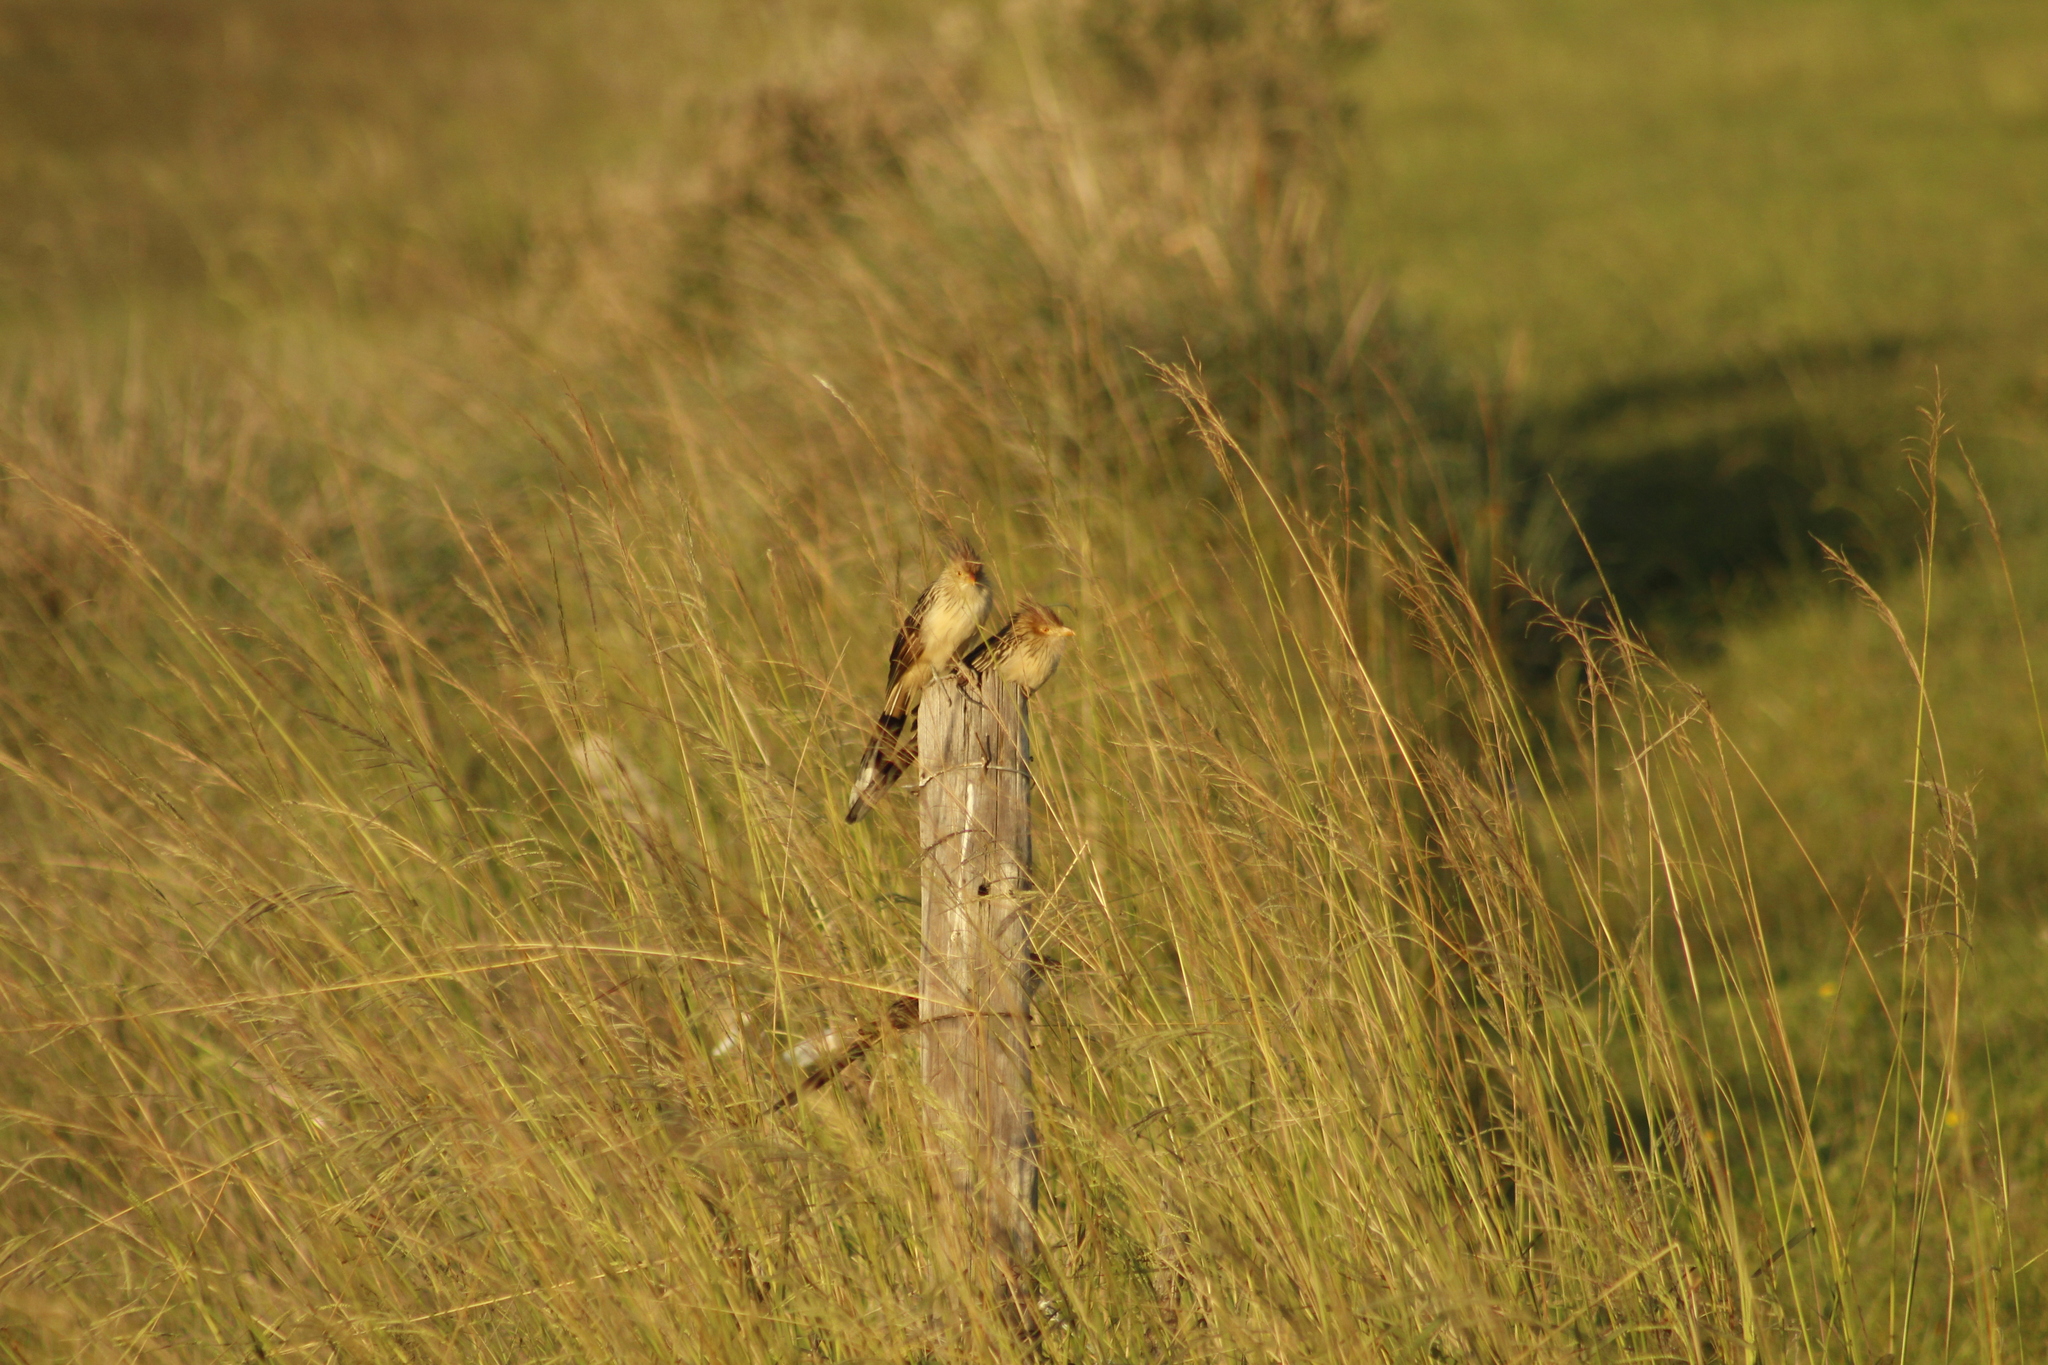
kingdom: Animalia
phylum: Chordata
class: Aves
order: Cuculiformes
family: Cuculidae
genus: Guira
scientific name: Guira guira
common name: Guira cuckoo
